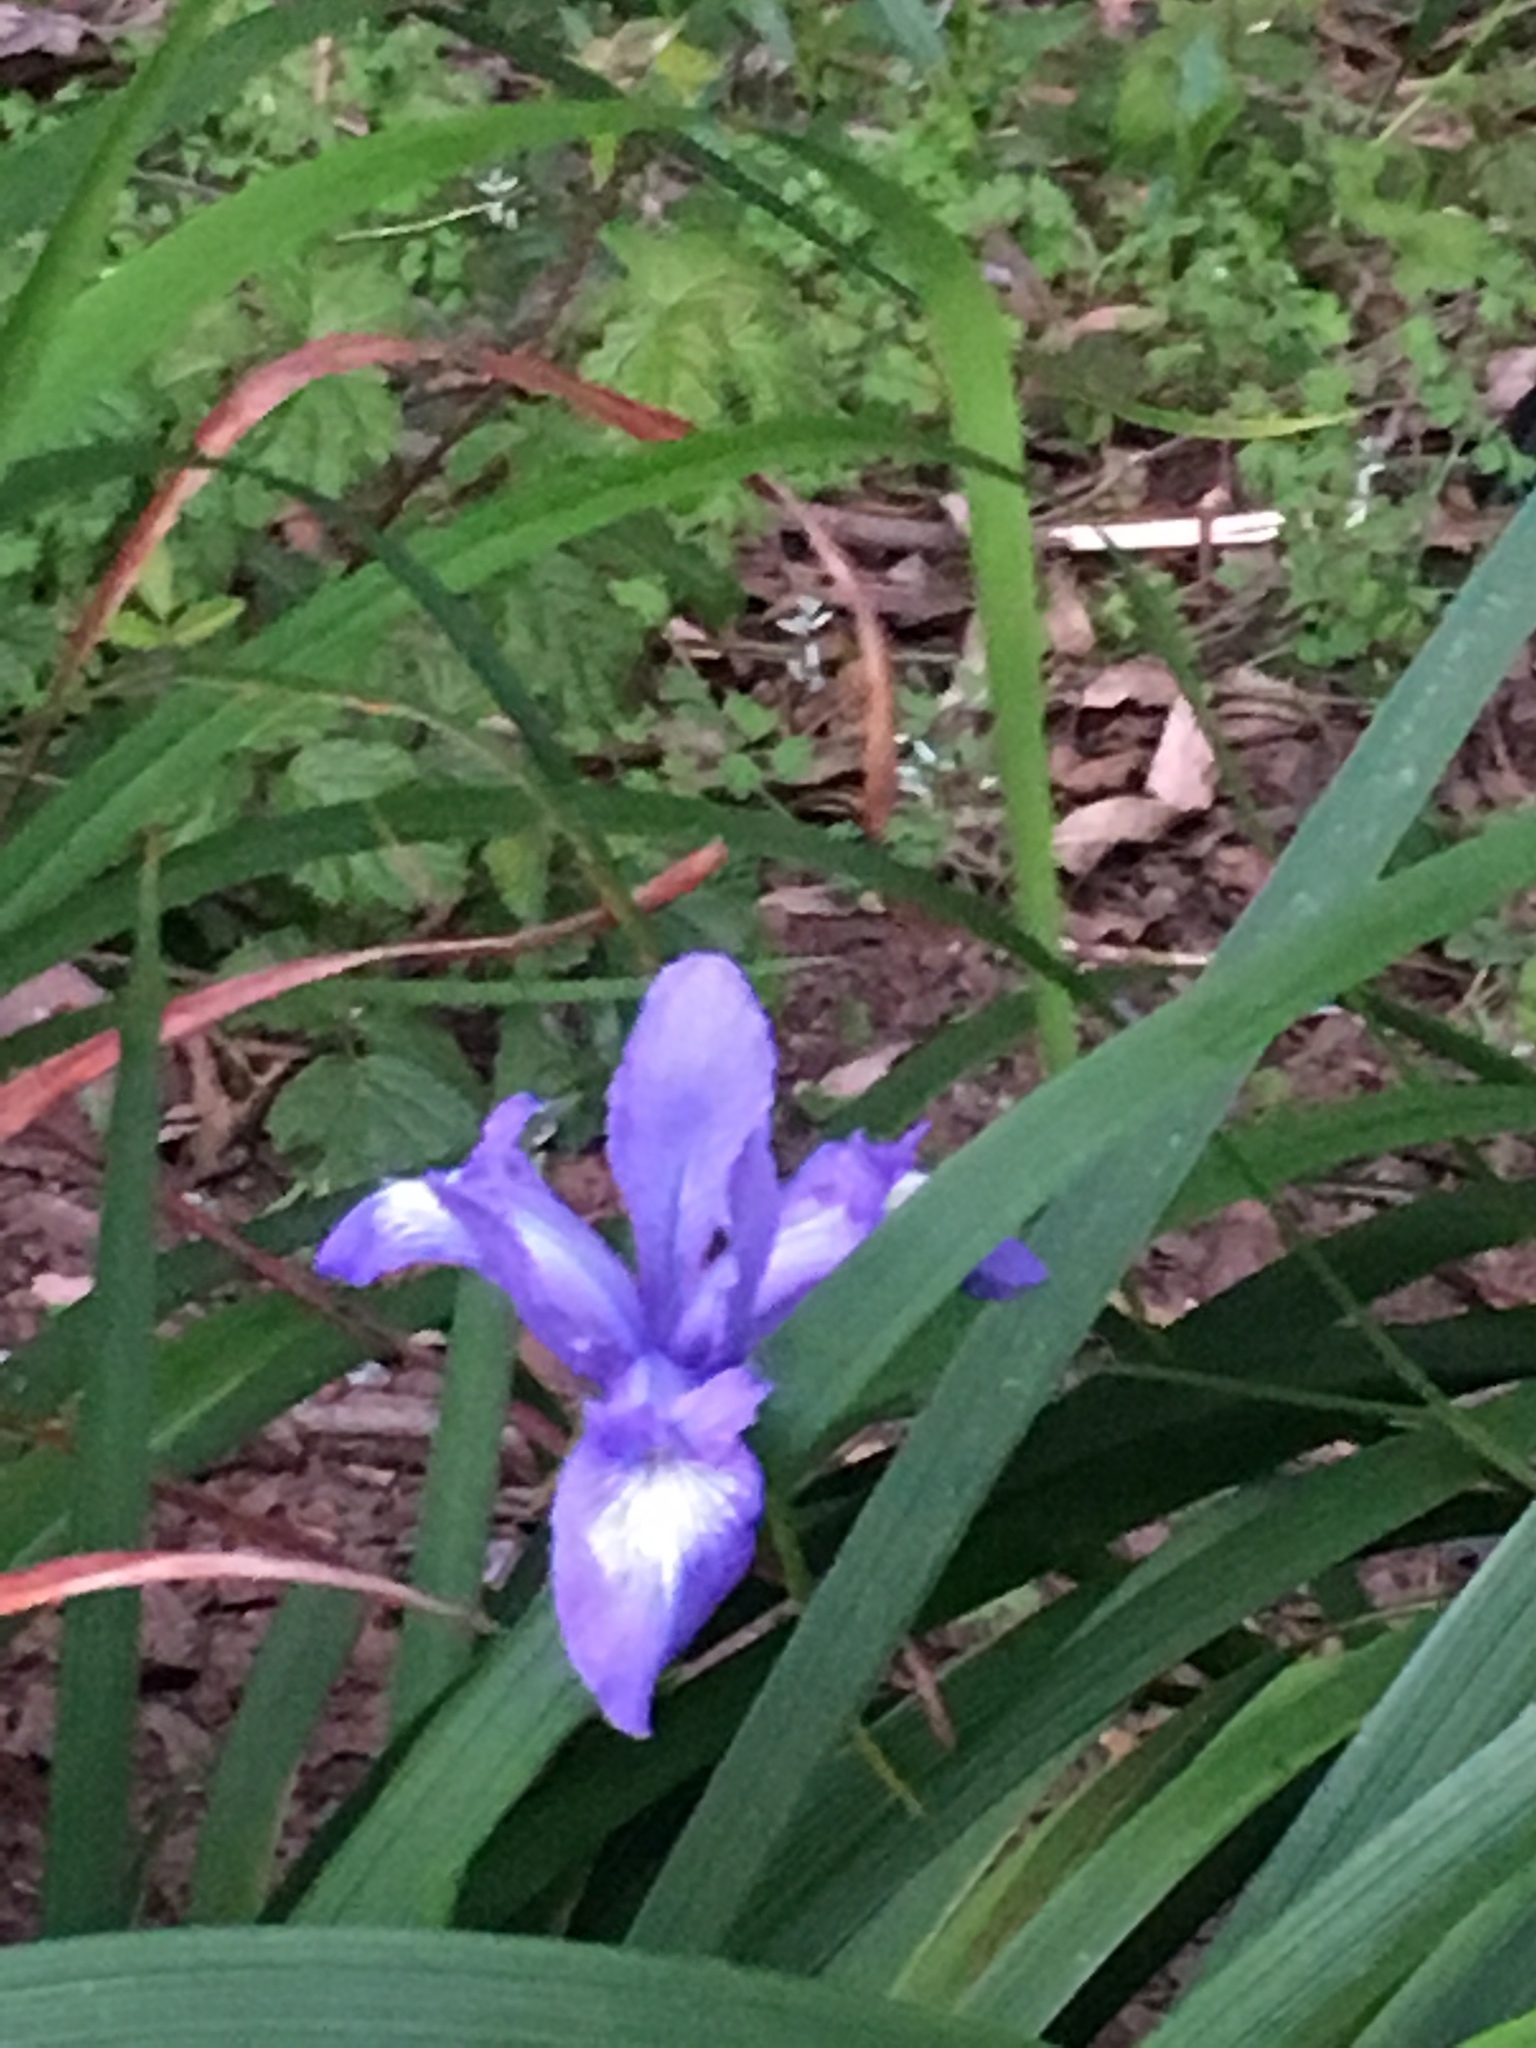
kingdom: Plantae
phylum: Tracheophyta
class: Liliopsida
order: Asparagales
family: Iridaceae
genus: Iris
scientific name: Iris douglasiana
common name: Marin iris
